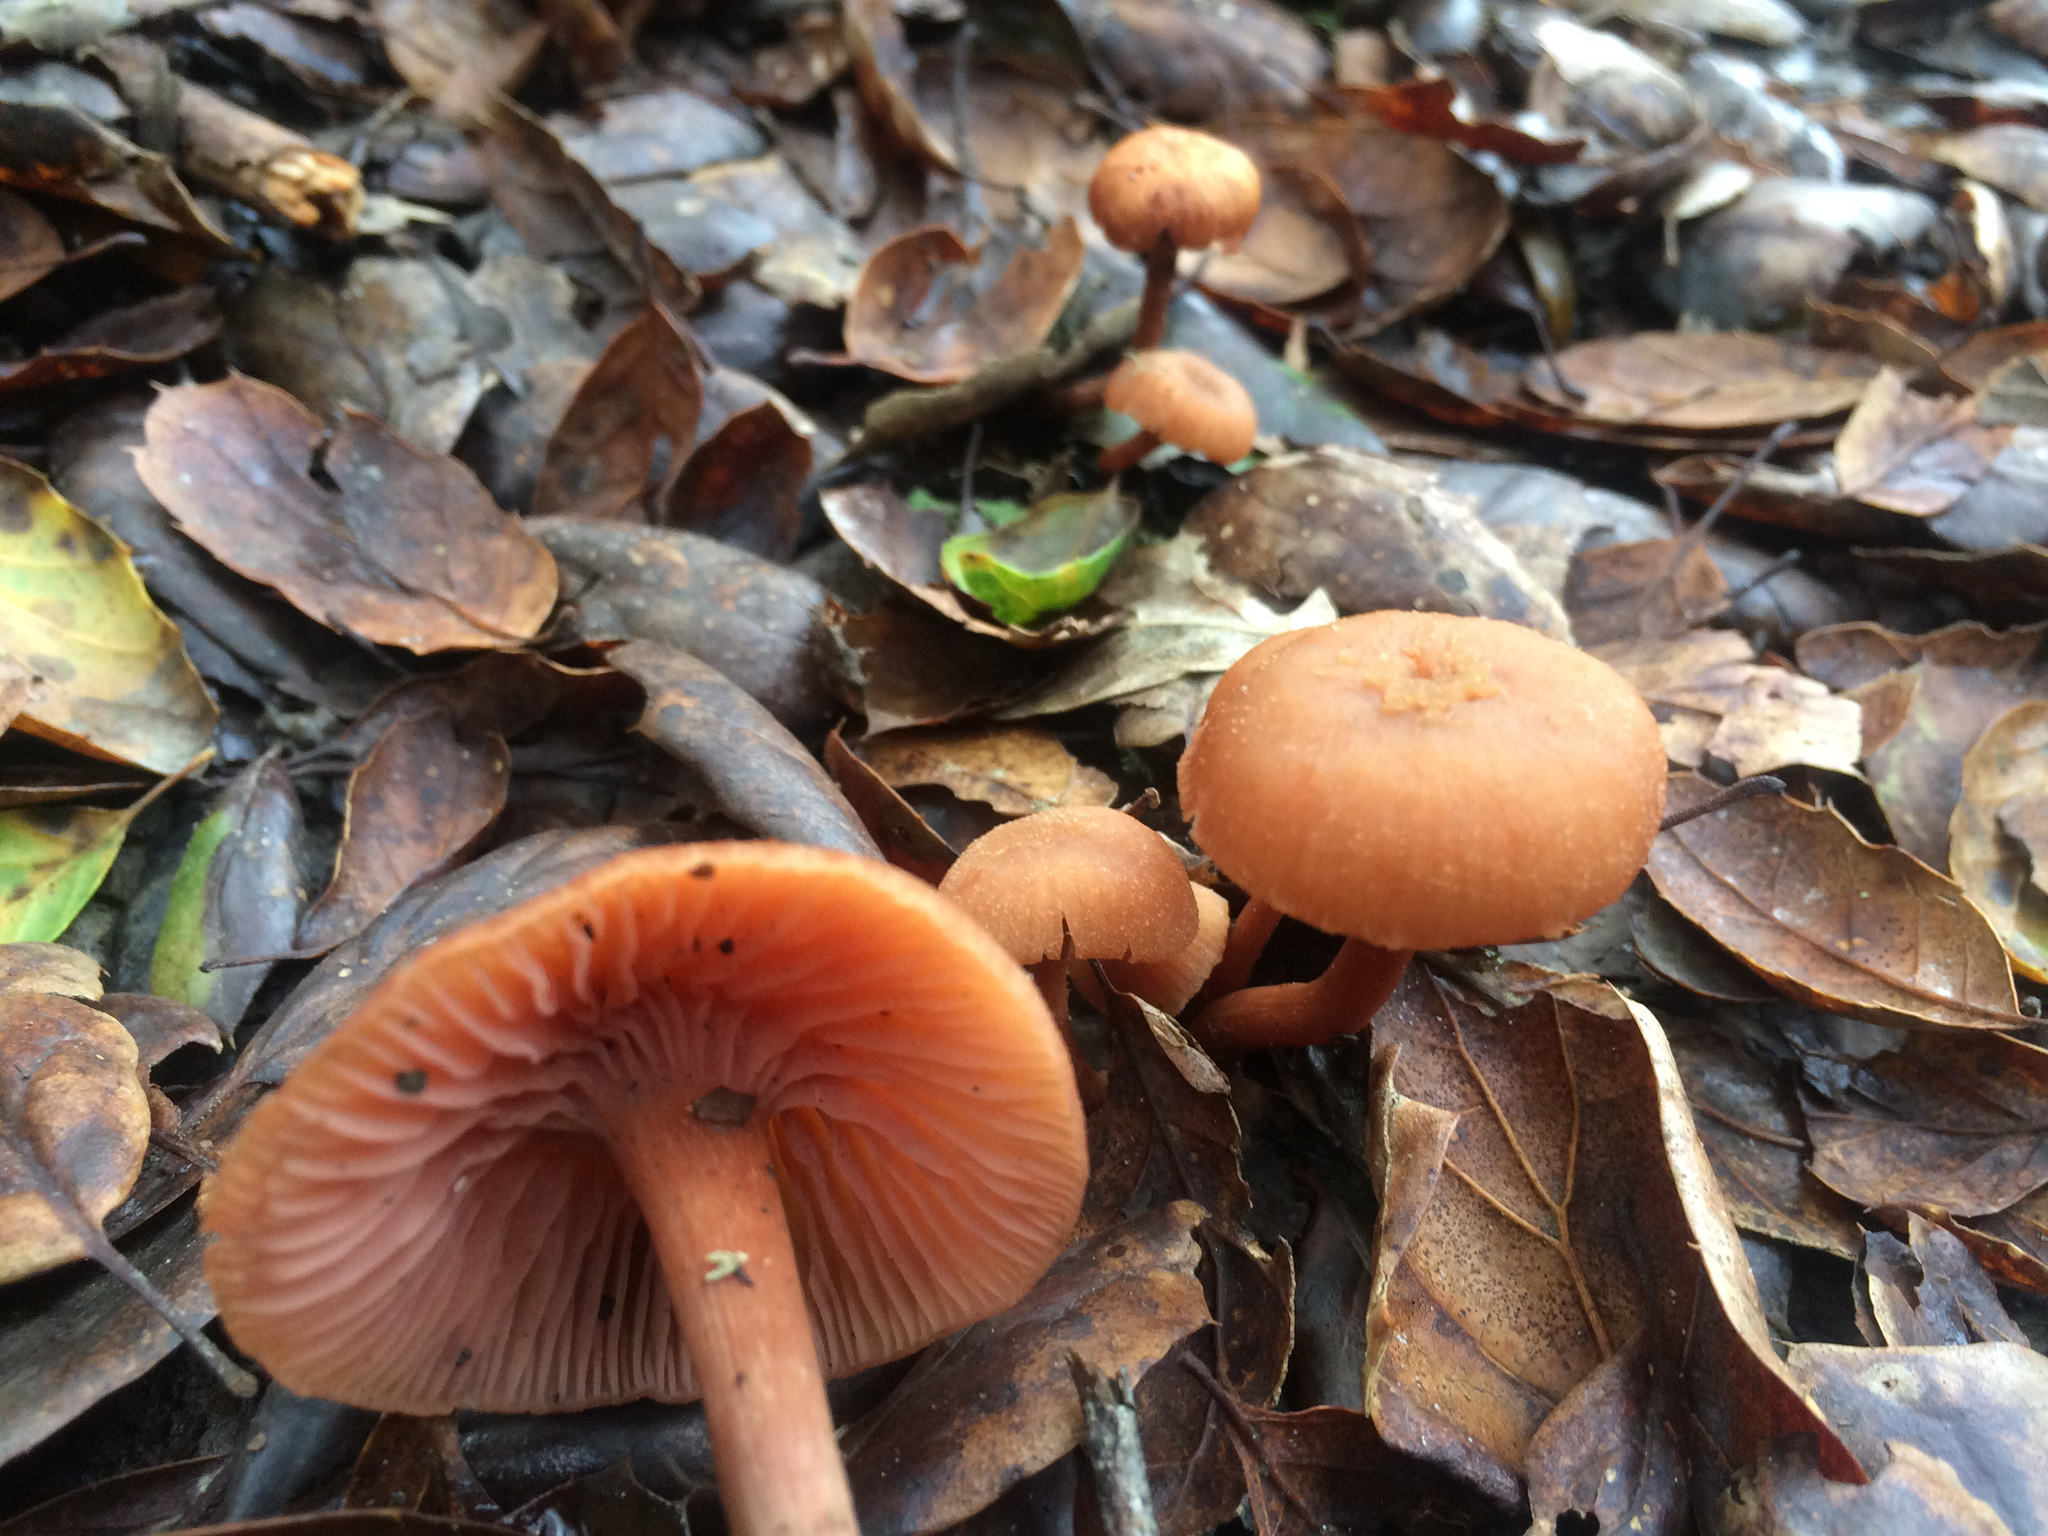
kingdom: Fungi
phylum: Basidiomycota
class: Agaricomycetes
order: Agaricales
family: Hydnangiaceae
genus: Laccaria
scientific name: Laccaria laccata
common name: Deceiver
